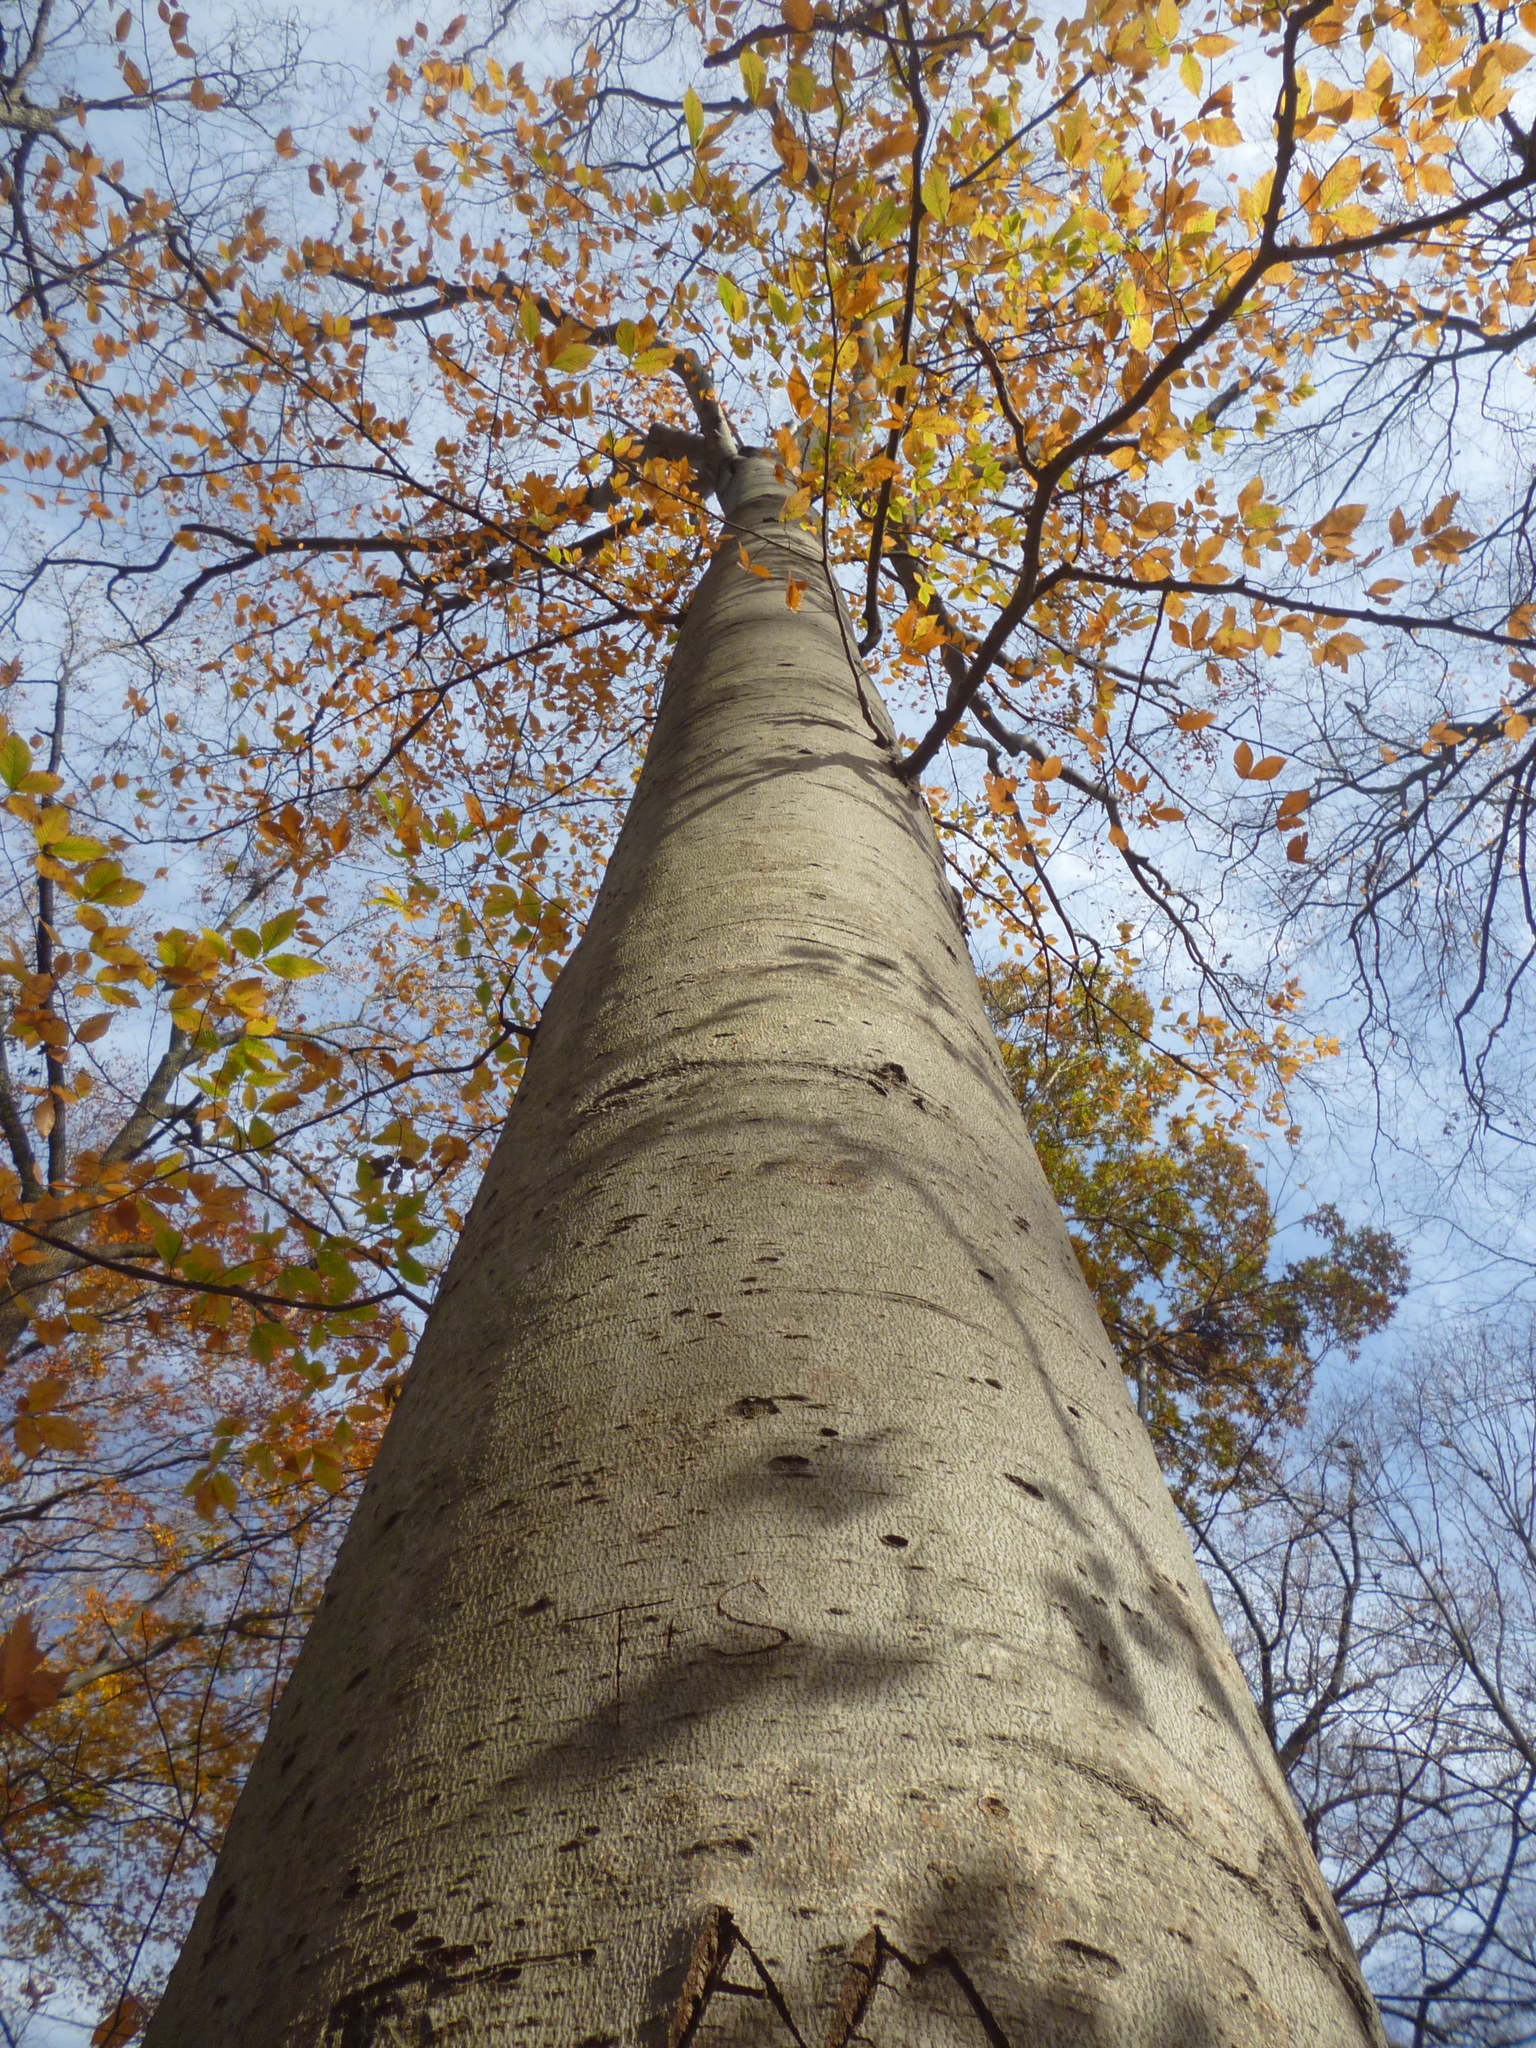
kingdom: Plantae
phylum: Tracheophyta
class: Magnoliopsida
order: Fagales
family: Fagaceae
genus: Fagus
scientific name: Fagus grandifolia
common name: American beech
